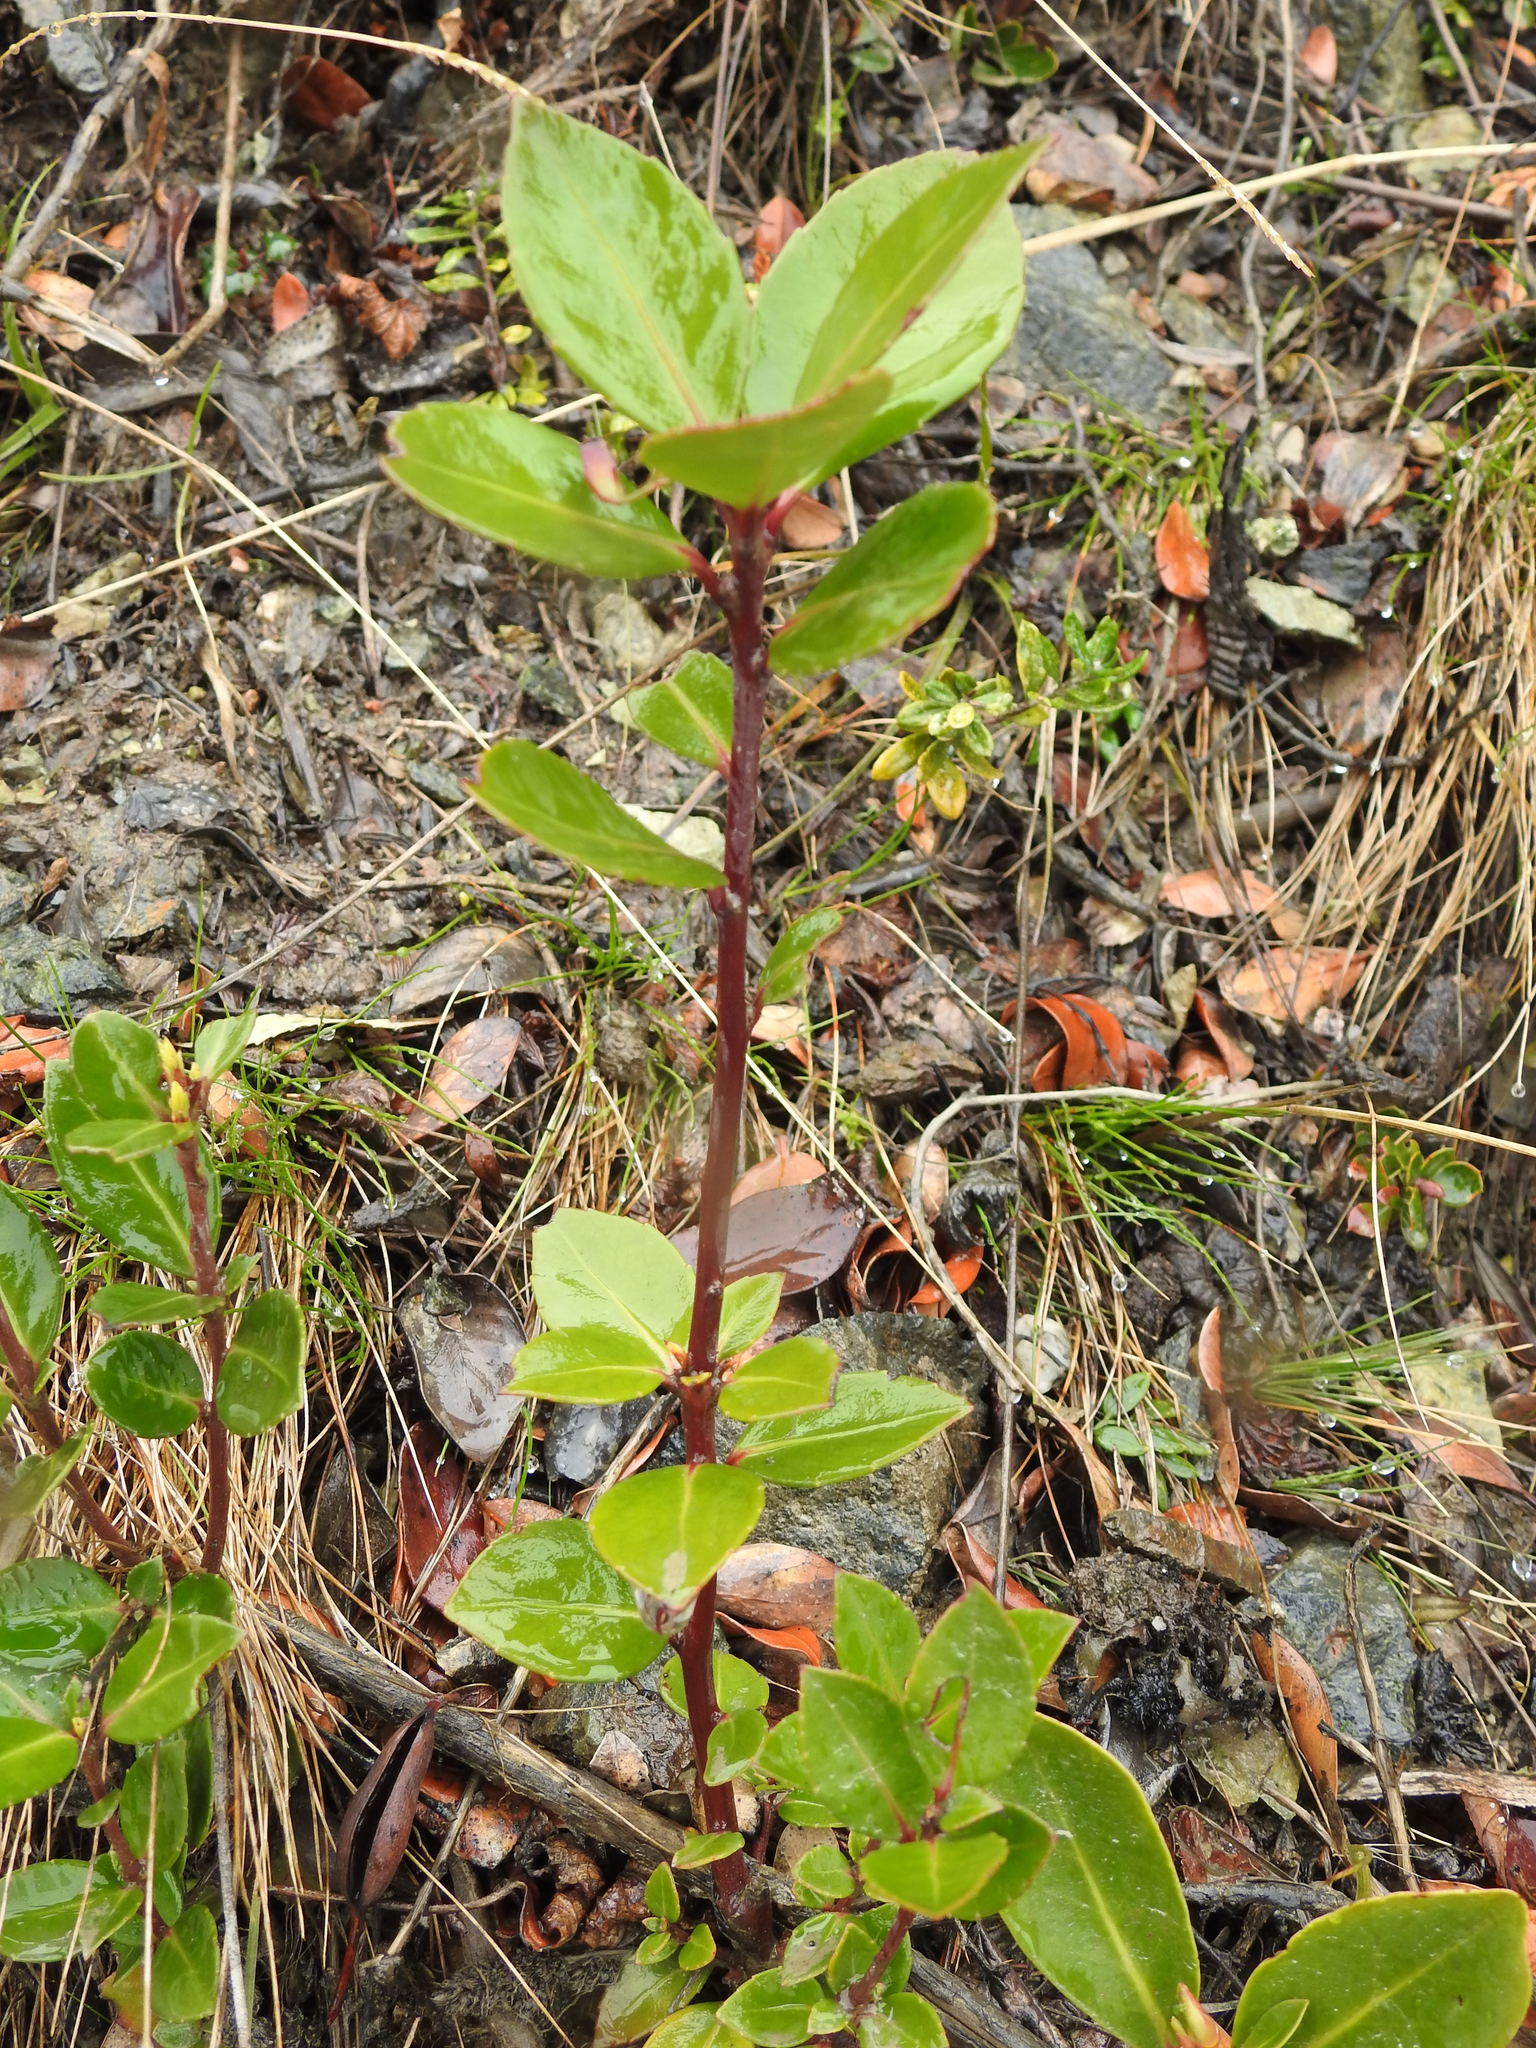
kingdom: Plantae
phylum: Tracheophyta
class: Magnoliopsida
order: Celastrales
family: Celastraceae
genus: Maytenus
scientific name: Maytenus magellanica
